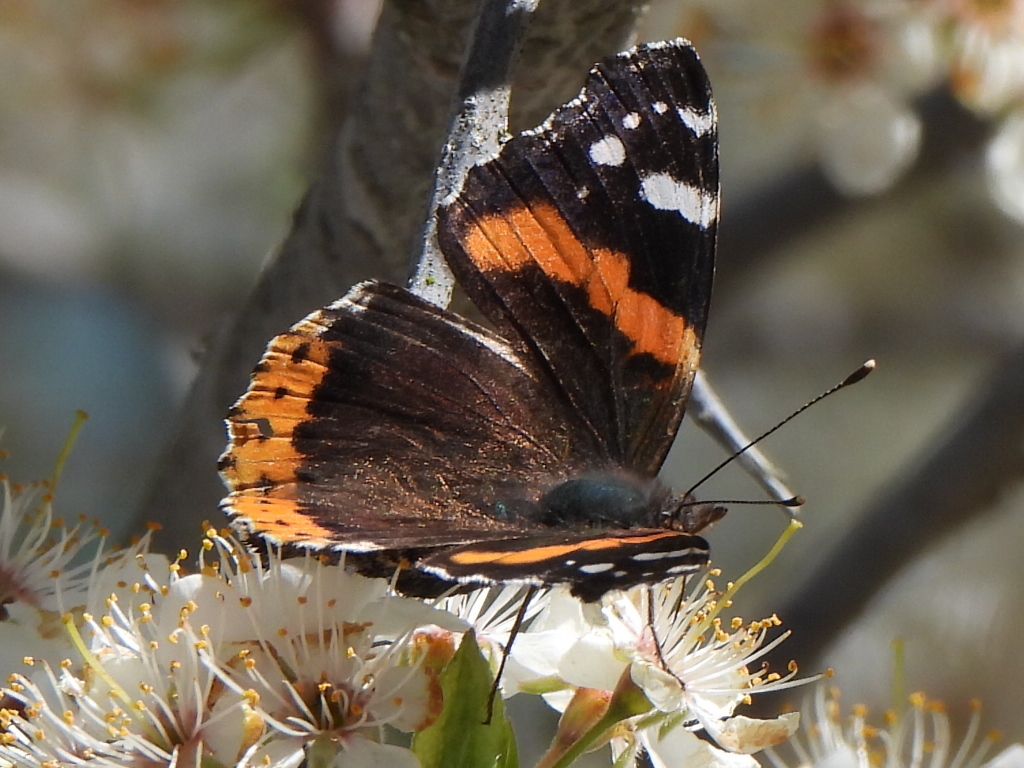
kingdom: Animalia
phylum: Arthropoda
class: Insecta
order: Lepidoptera
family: Nymphalidae
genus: Vanessa
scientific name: Vanessa atalanta
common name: Red admiral
